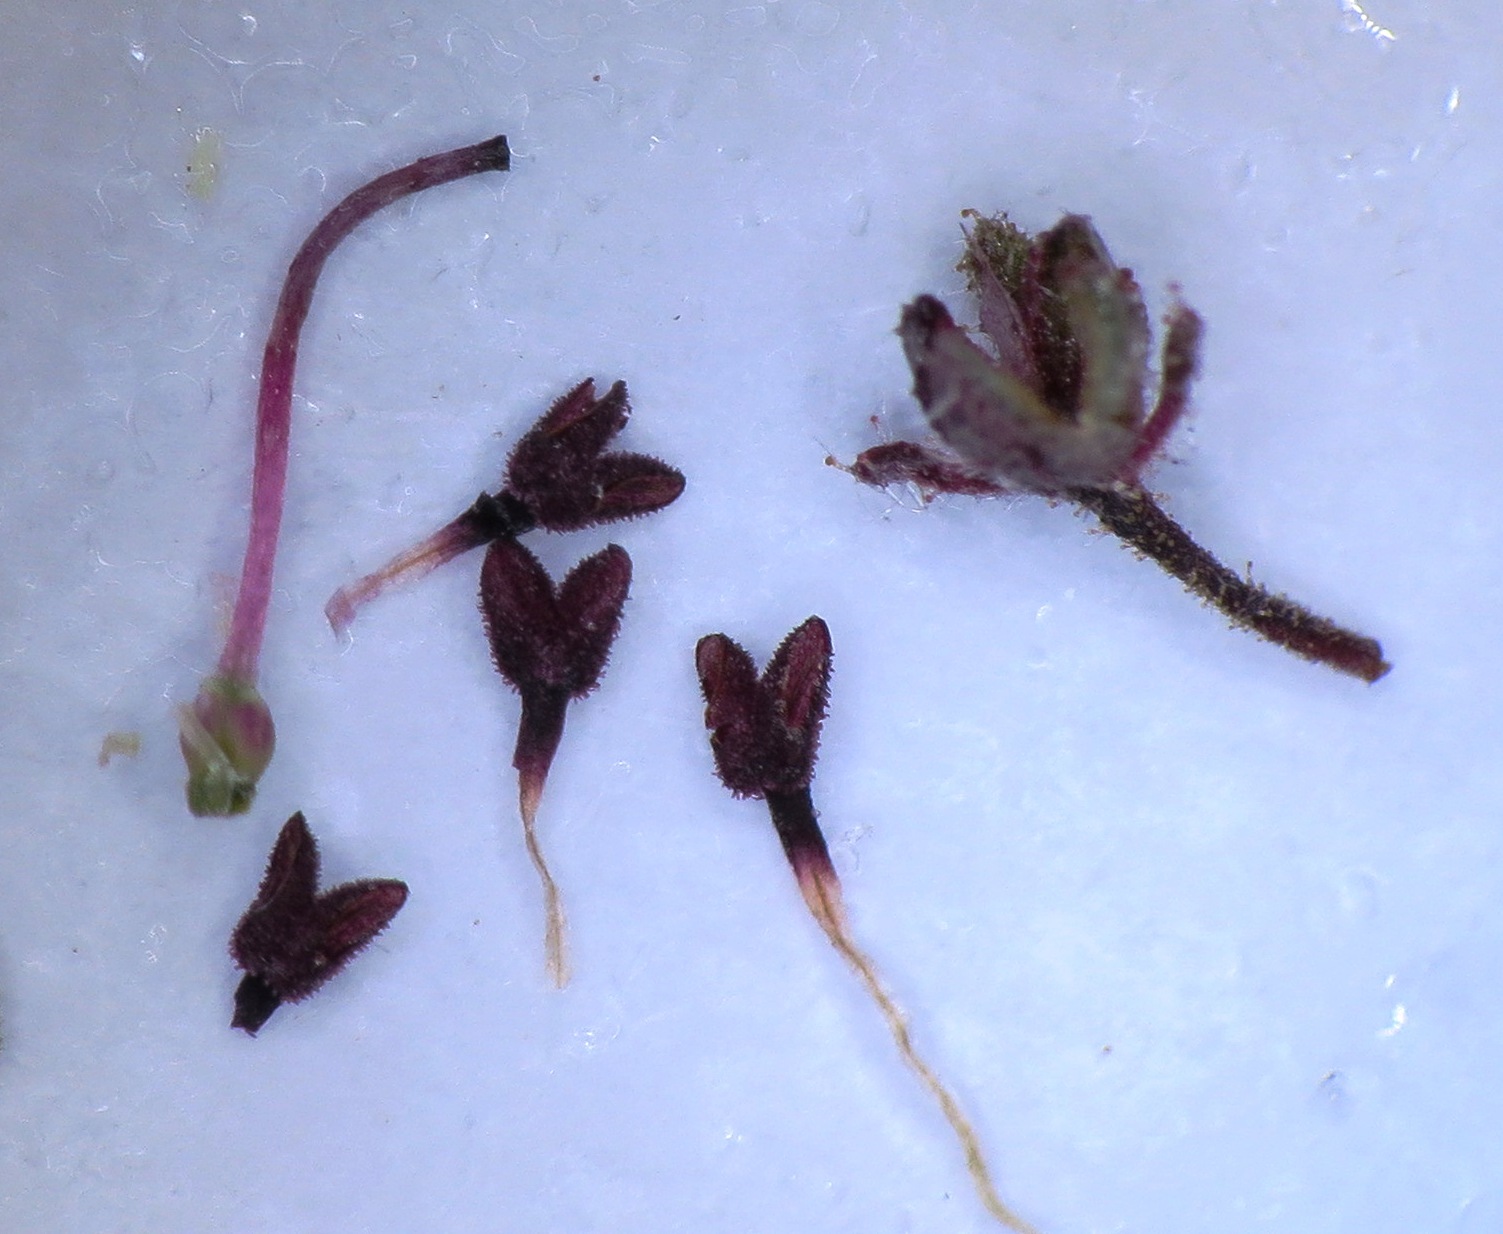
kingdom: Plantae
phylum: Tracheophyta
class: Magnoliopsida
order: Ericales
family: Ericaceae
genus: Erica
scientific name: Erica filiformis
